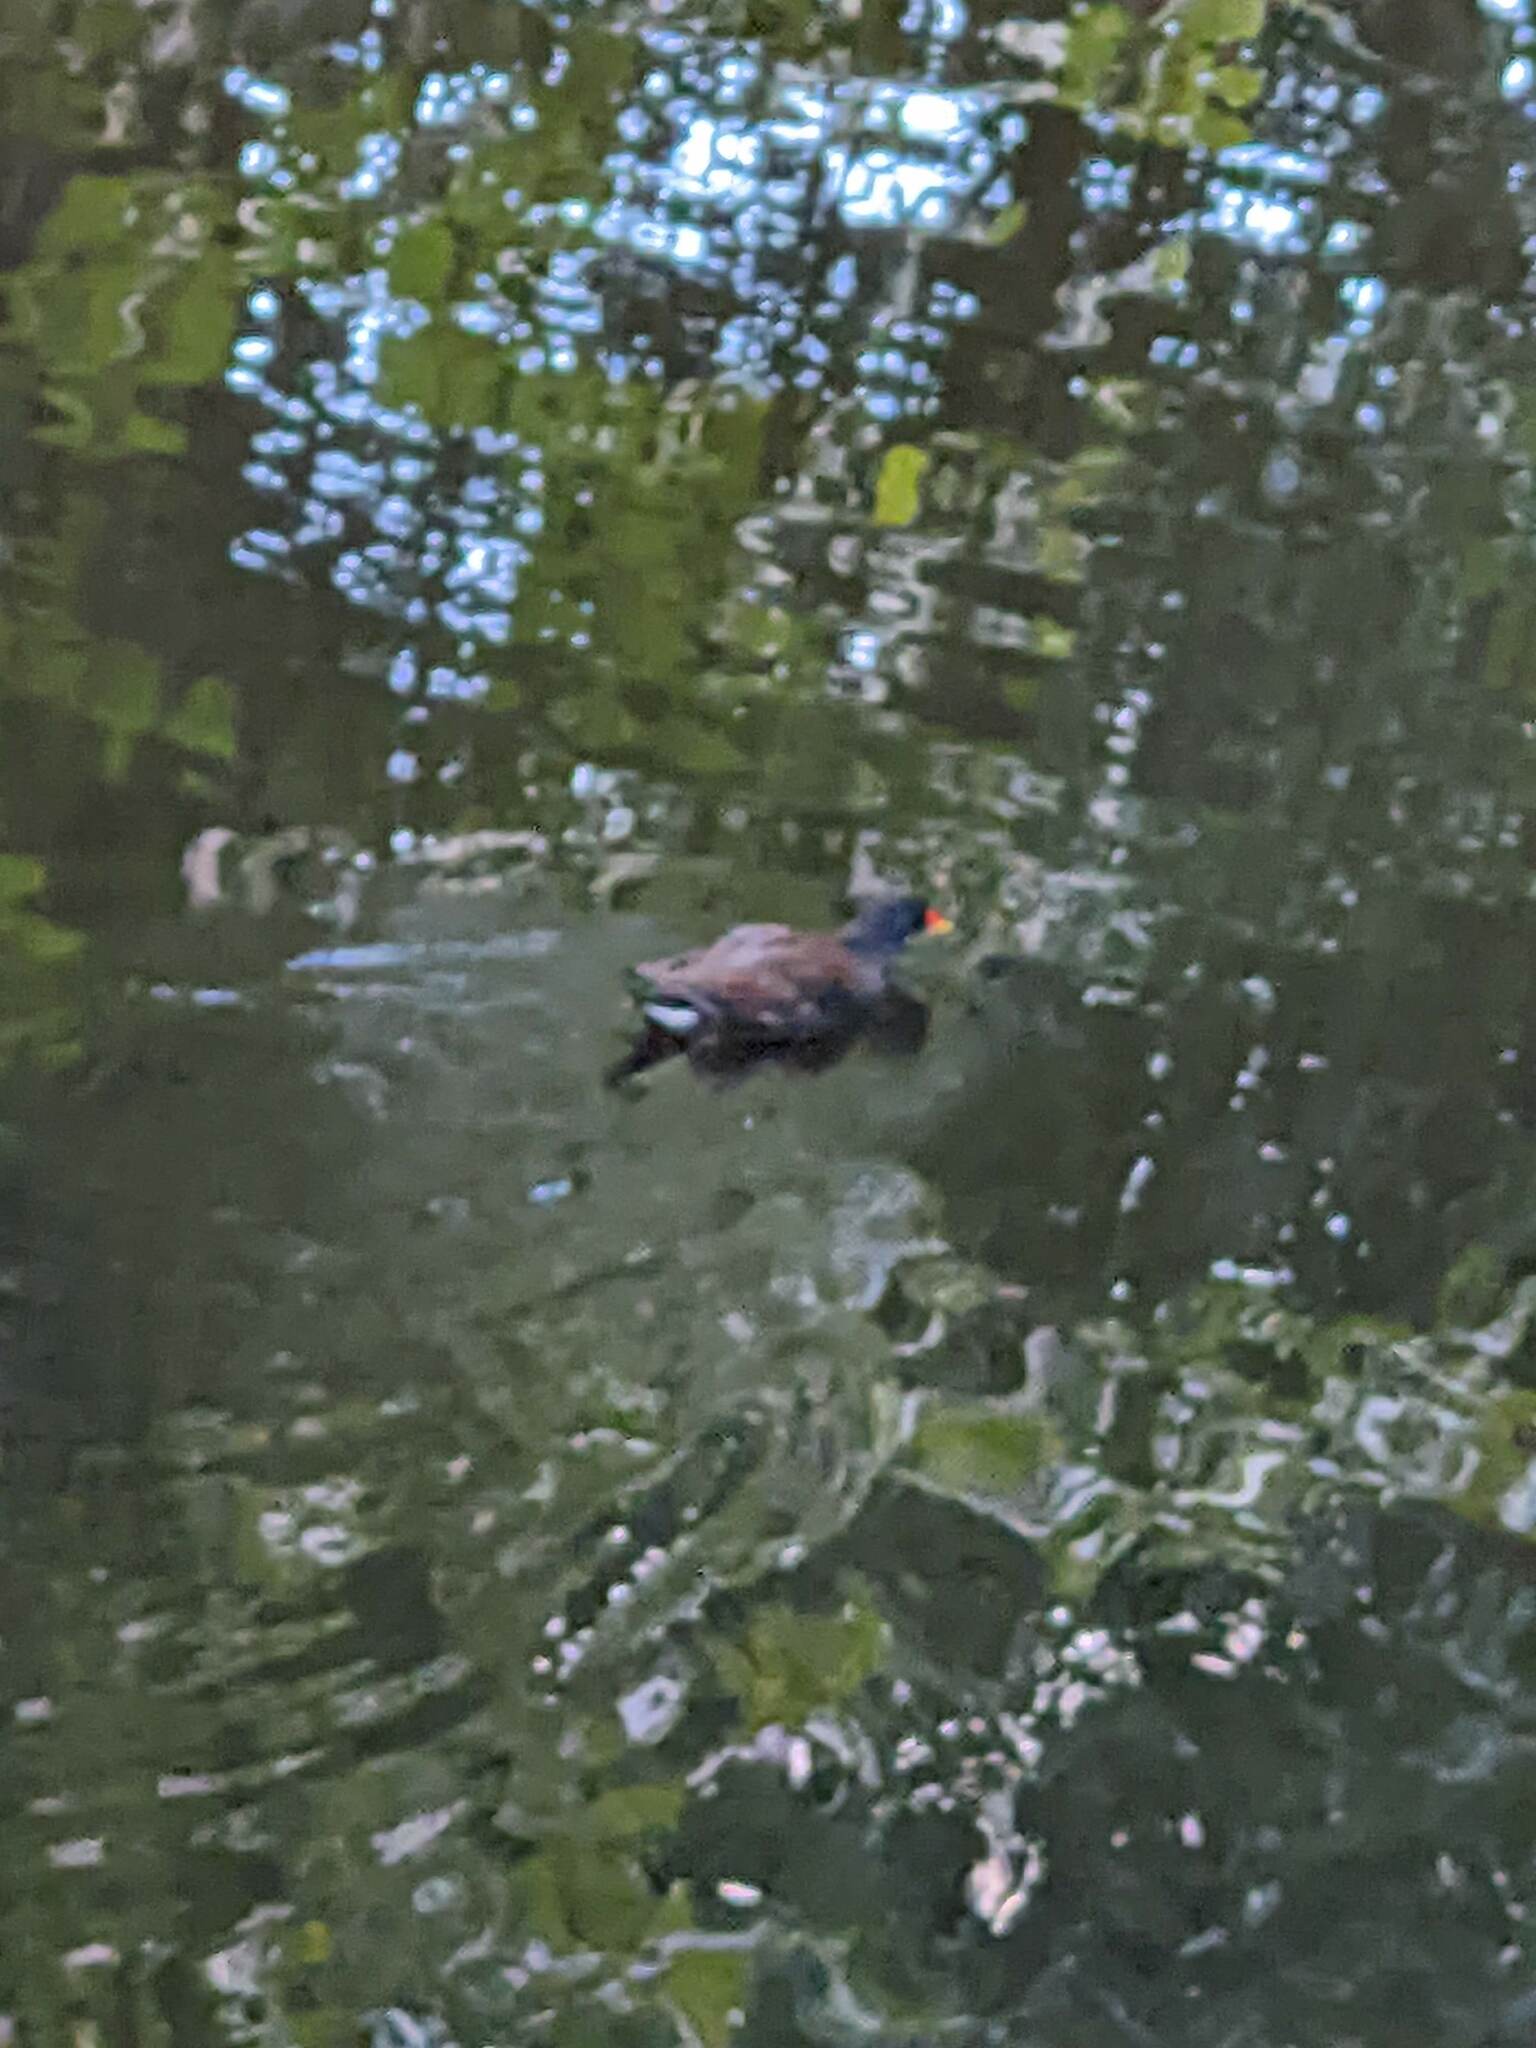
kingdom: Animalia
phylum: Chordata
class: Aves
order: Gruiformes
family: Rallidae
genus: Gallinula
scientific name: Gallinula chloropus
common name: Common moorhen
